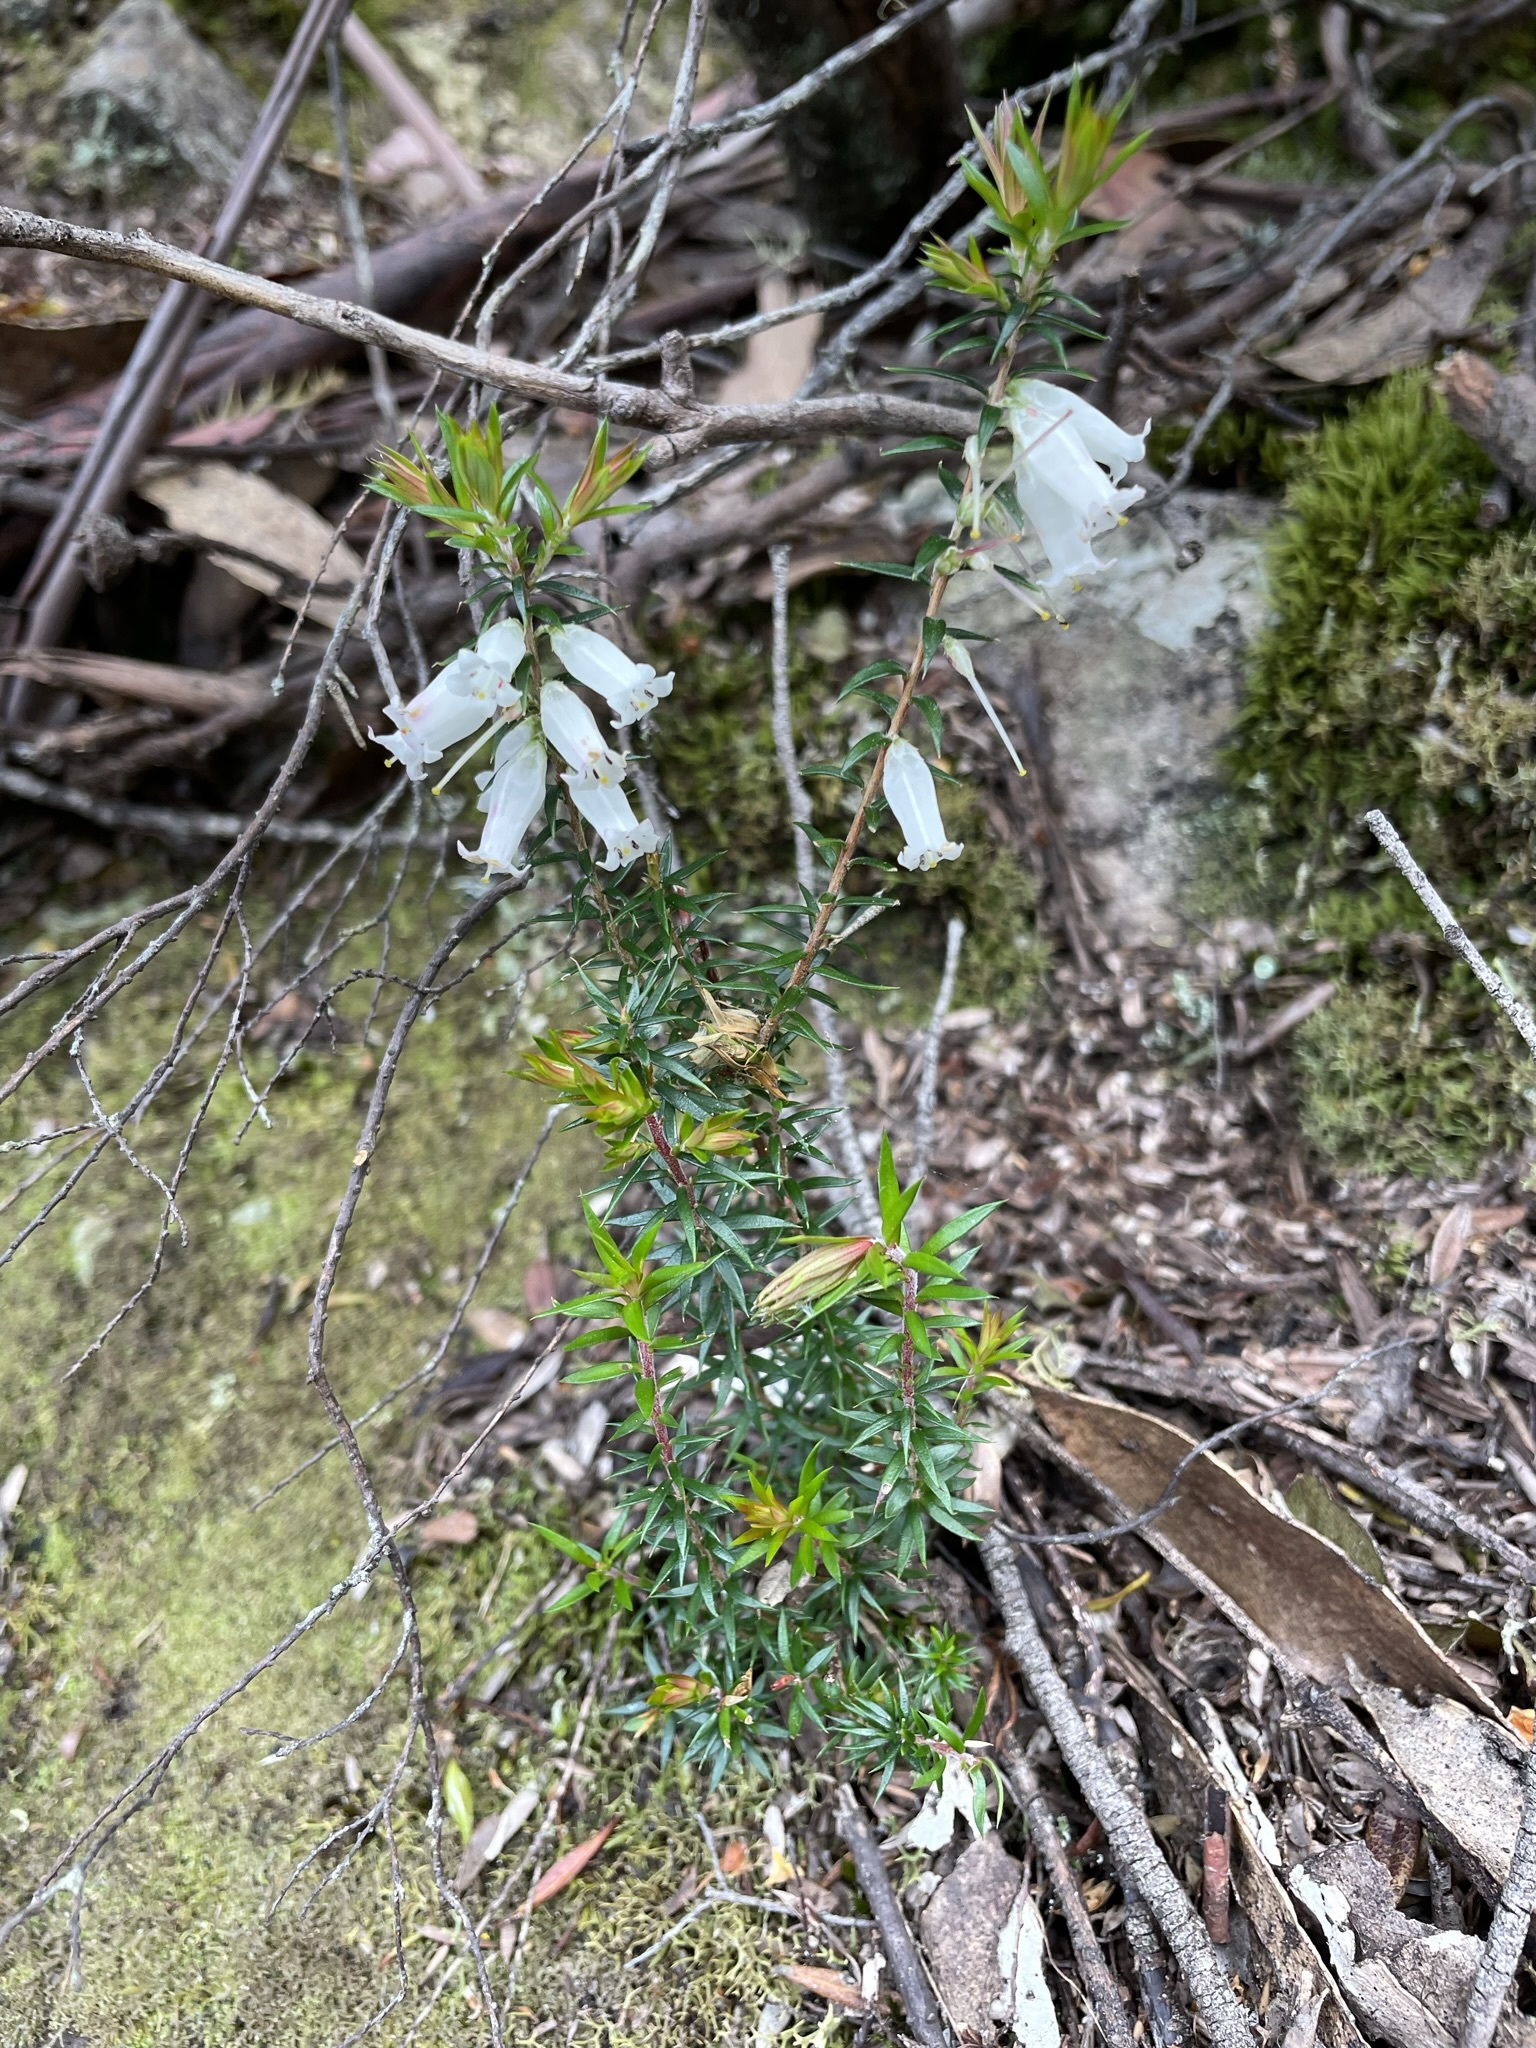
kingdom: Plantae
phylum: Tracheophyta
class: Magnoliopsida
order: Ericales
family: Ericaceae
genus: Epacris
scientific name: Epacris impressa
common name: Common-heath
